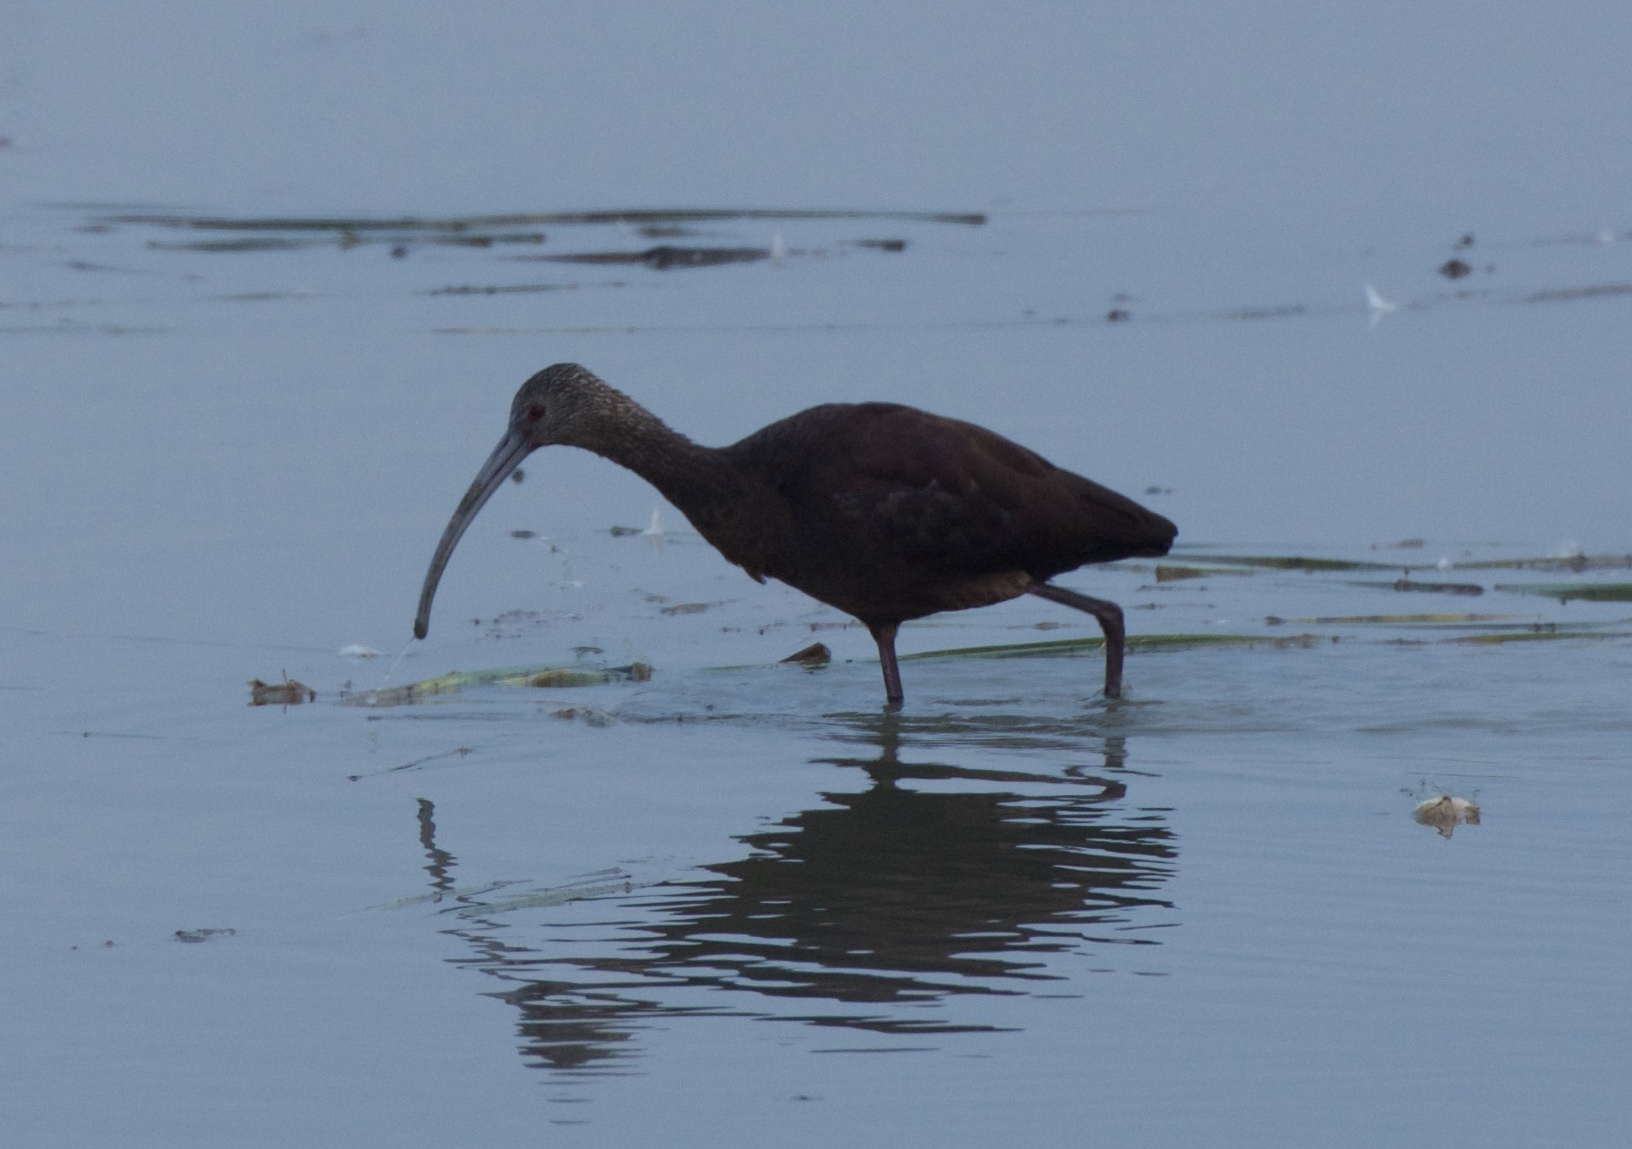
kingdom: Animalia
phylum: Chordata
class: Aves
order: Pelecaniformes
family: Threskiornithidae
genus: Plegadis
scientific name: Plegadis chihi
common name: White-faced ibis
